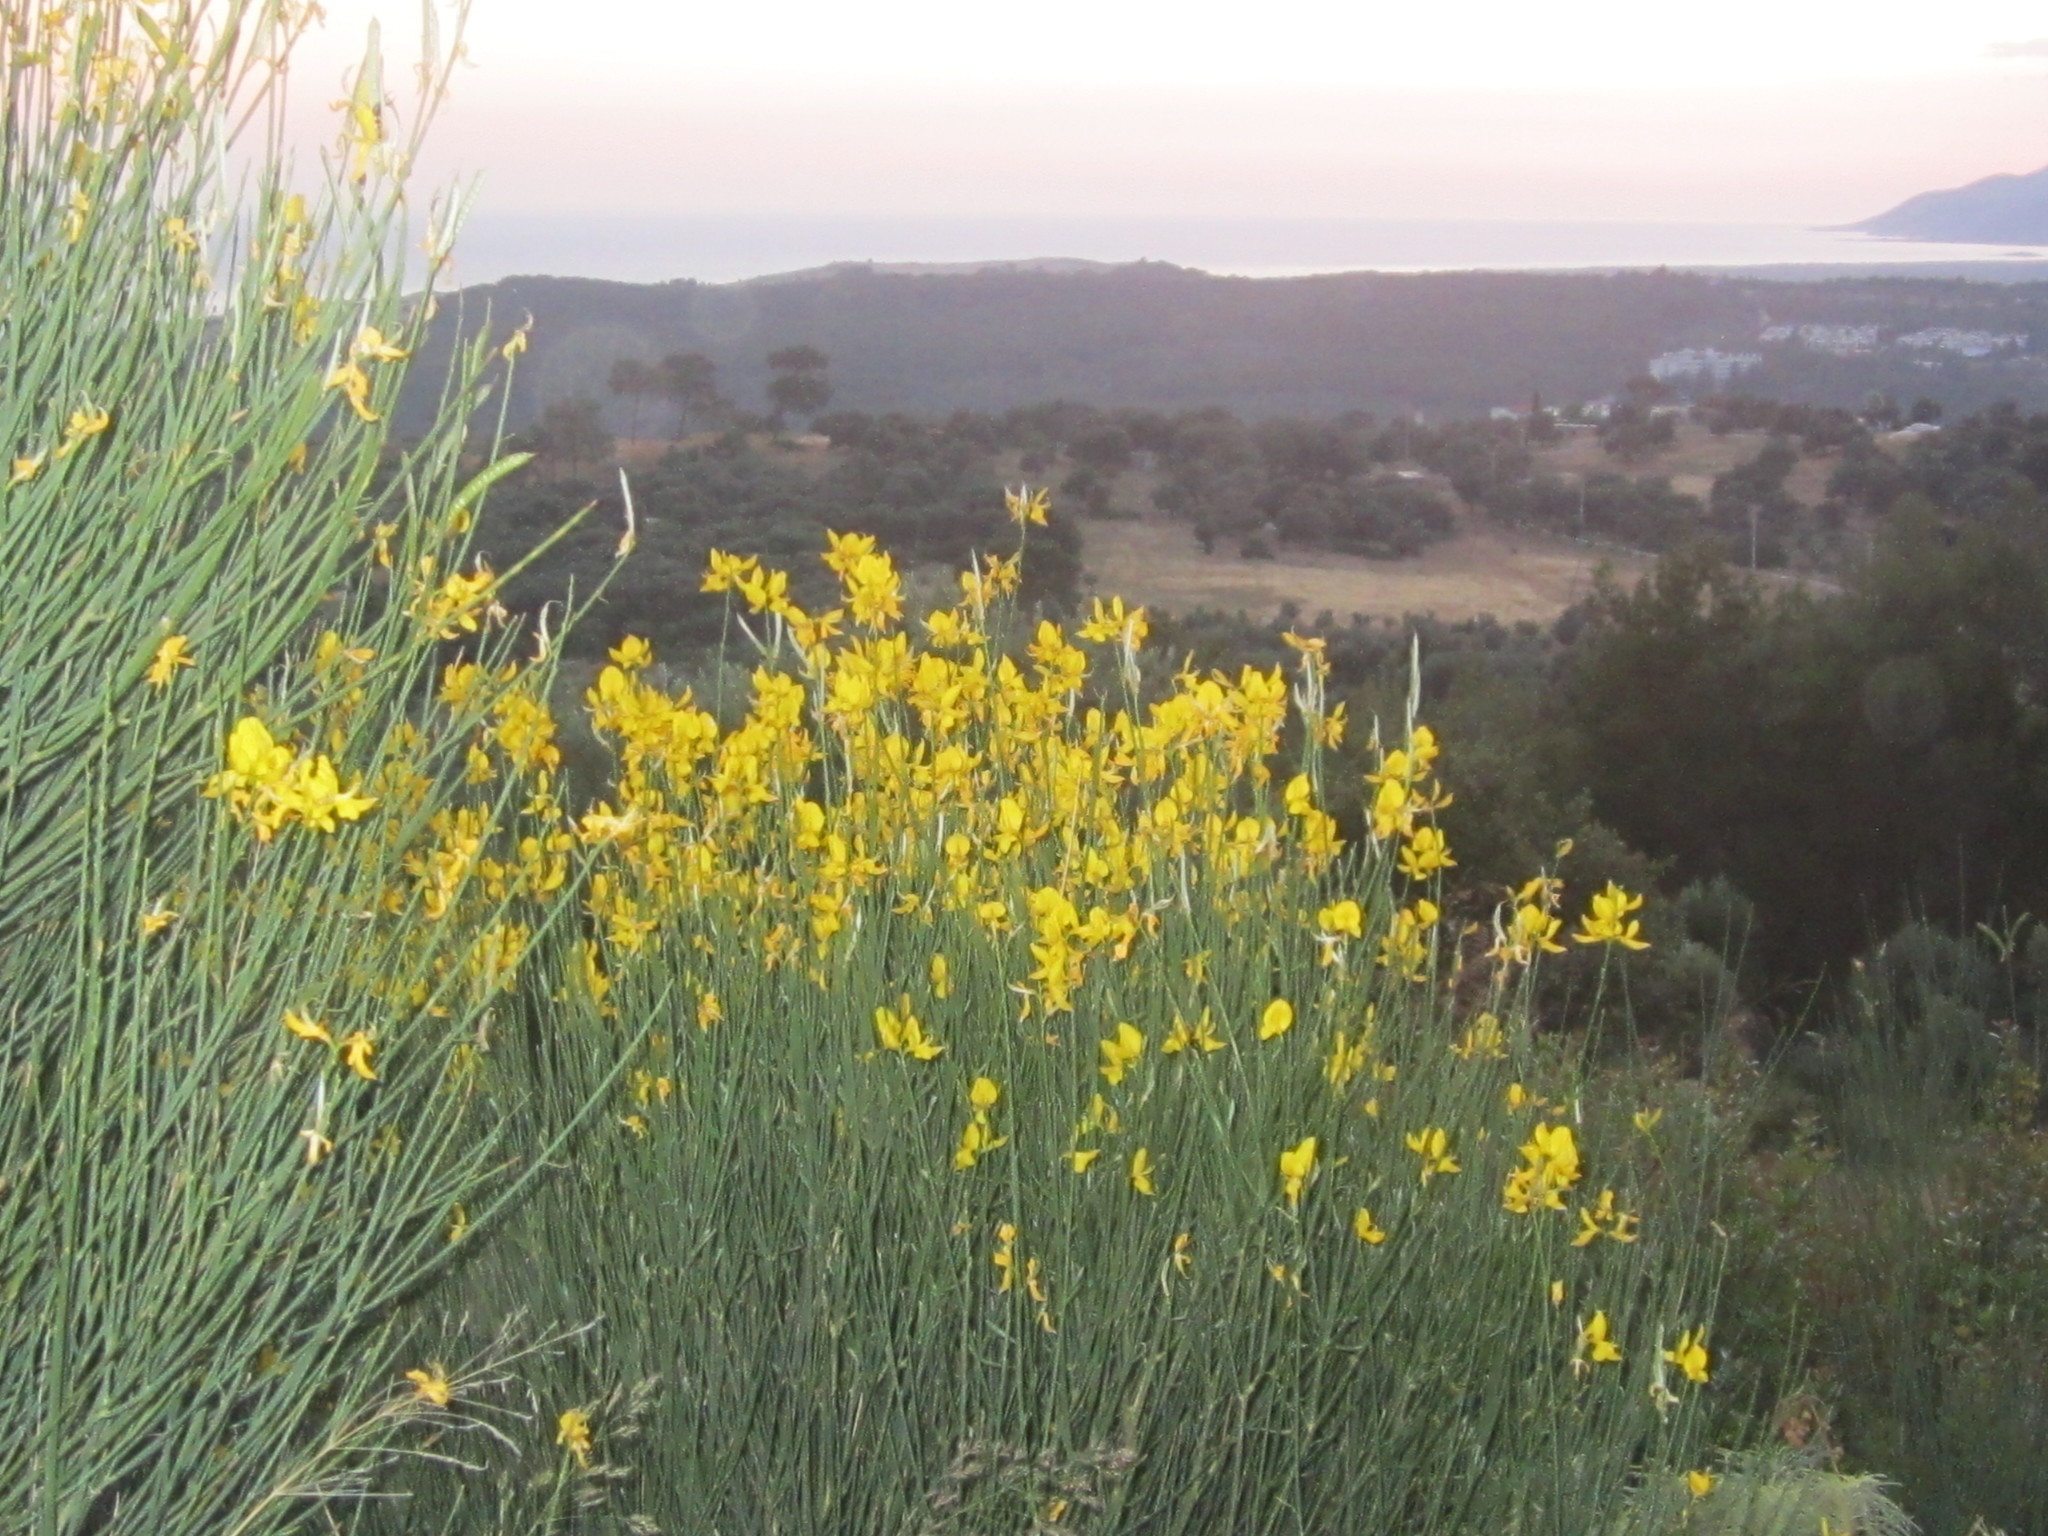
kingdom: Plantae
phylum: Tracheophyta
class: Magnoliopsida
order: Fabales
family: Fabaceae
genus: Spartium
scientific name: Spartium junceum
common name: Spanish broom
